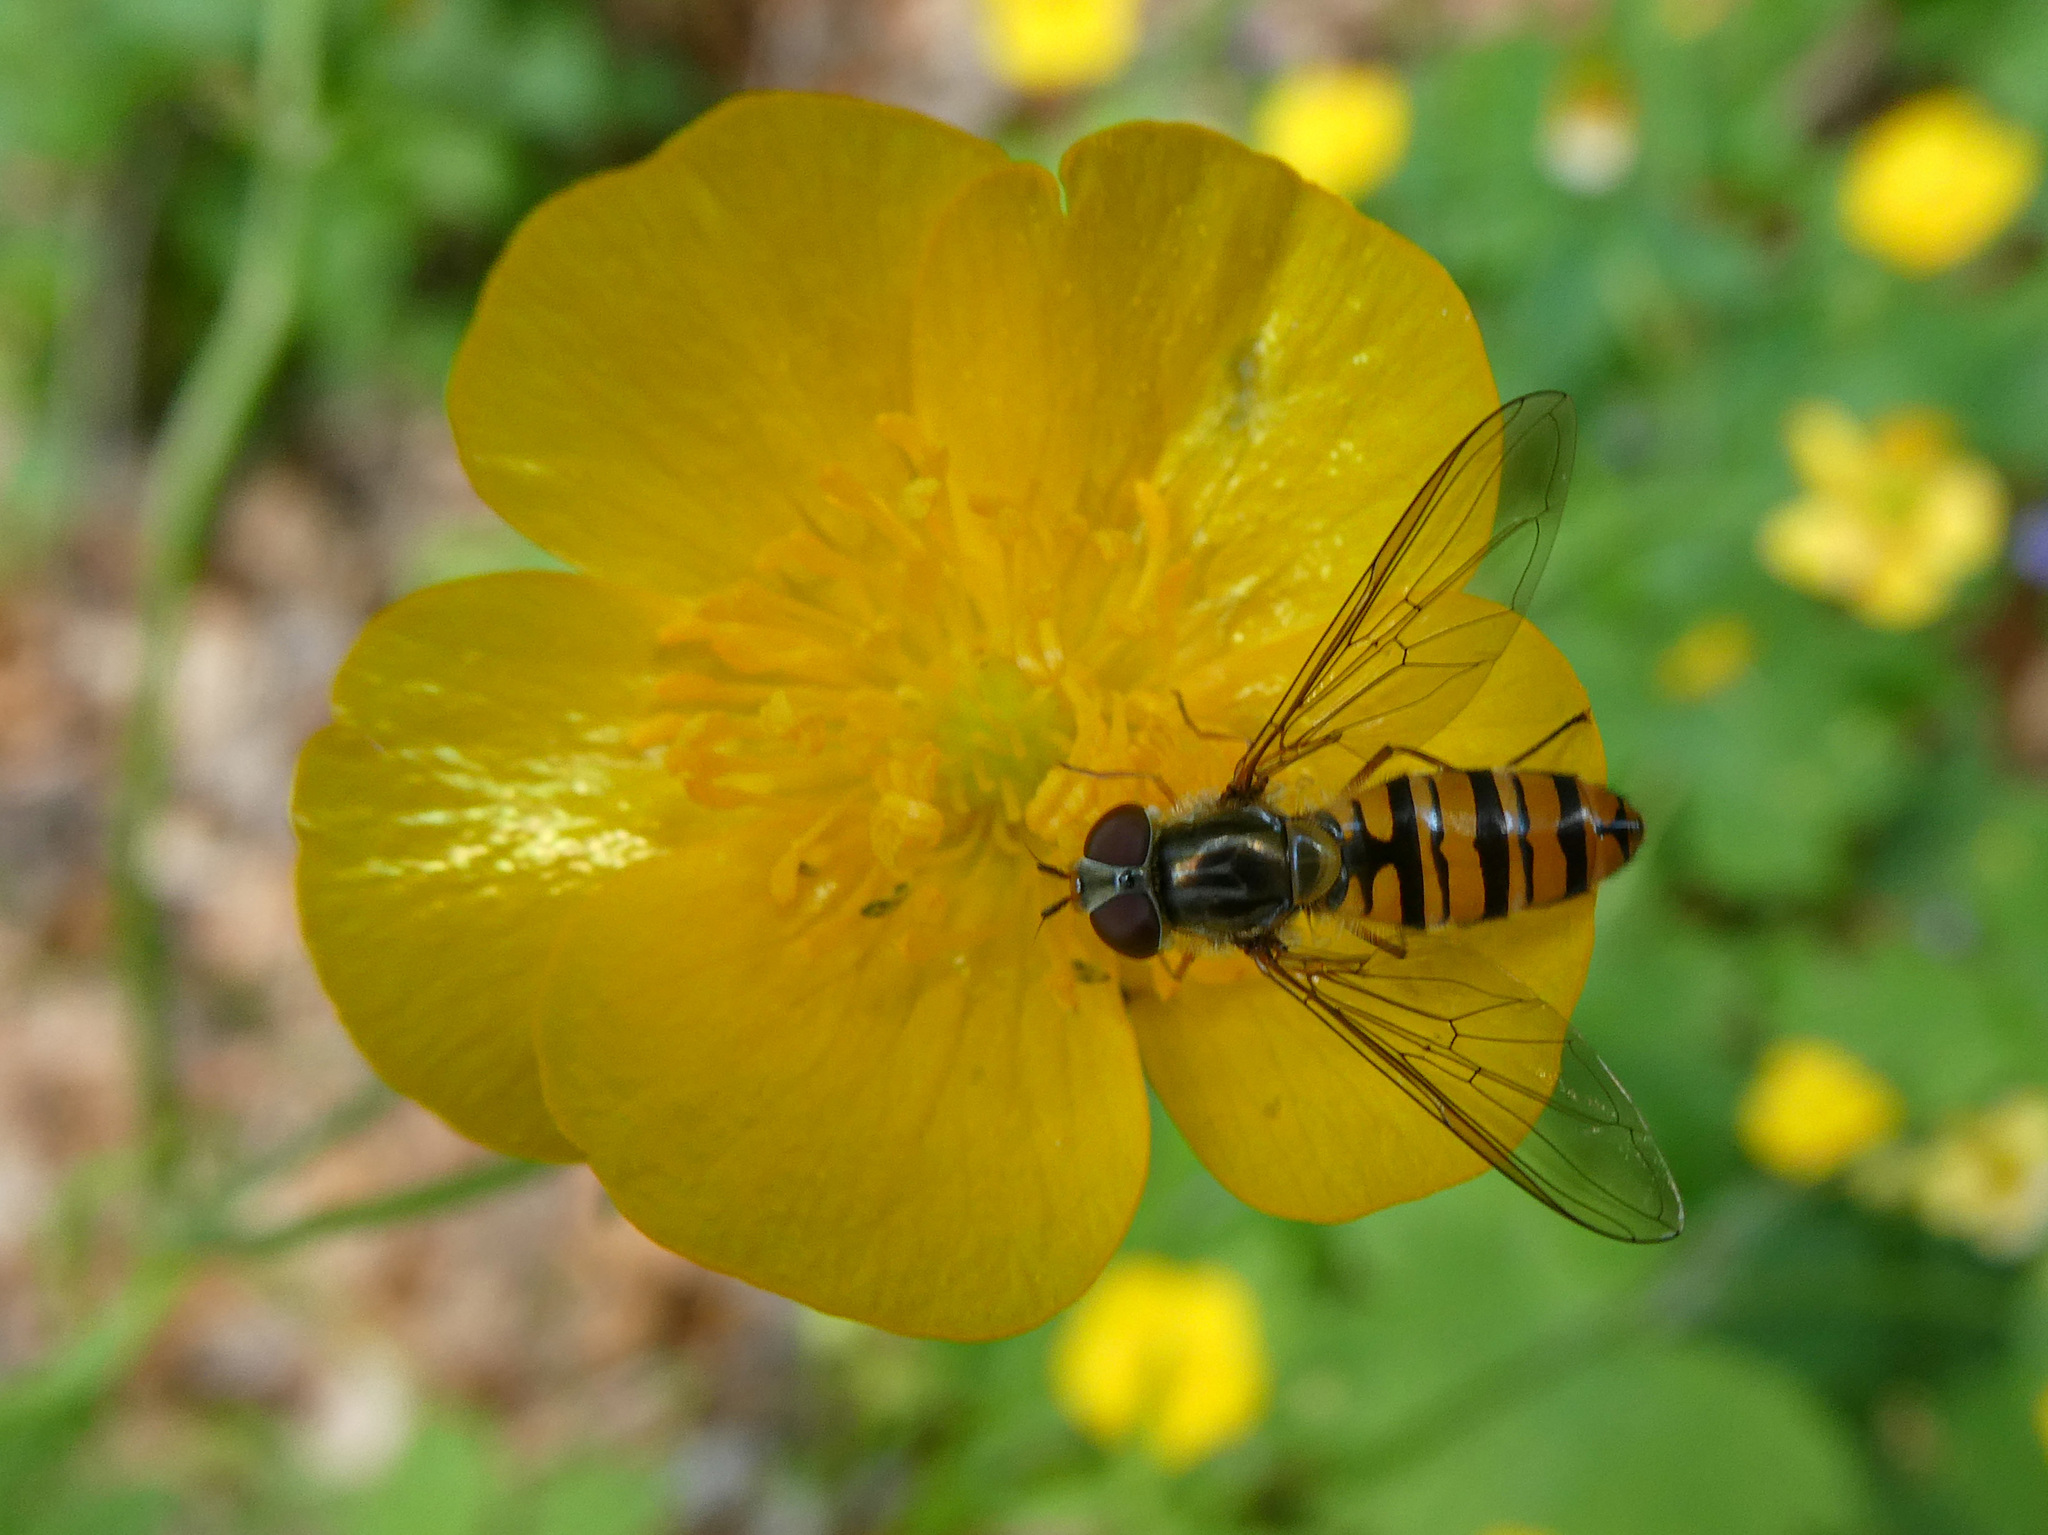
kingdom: Animalia
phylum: Arthropoda
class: Insecta
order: Diptera
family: Syrphidae
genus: Episyrphus
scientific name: Episyrphus balteatus
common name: Marmalade hoverfly
